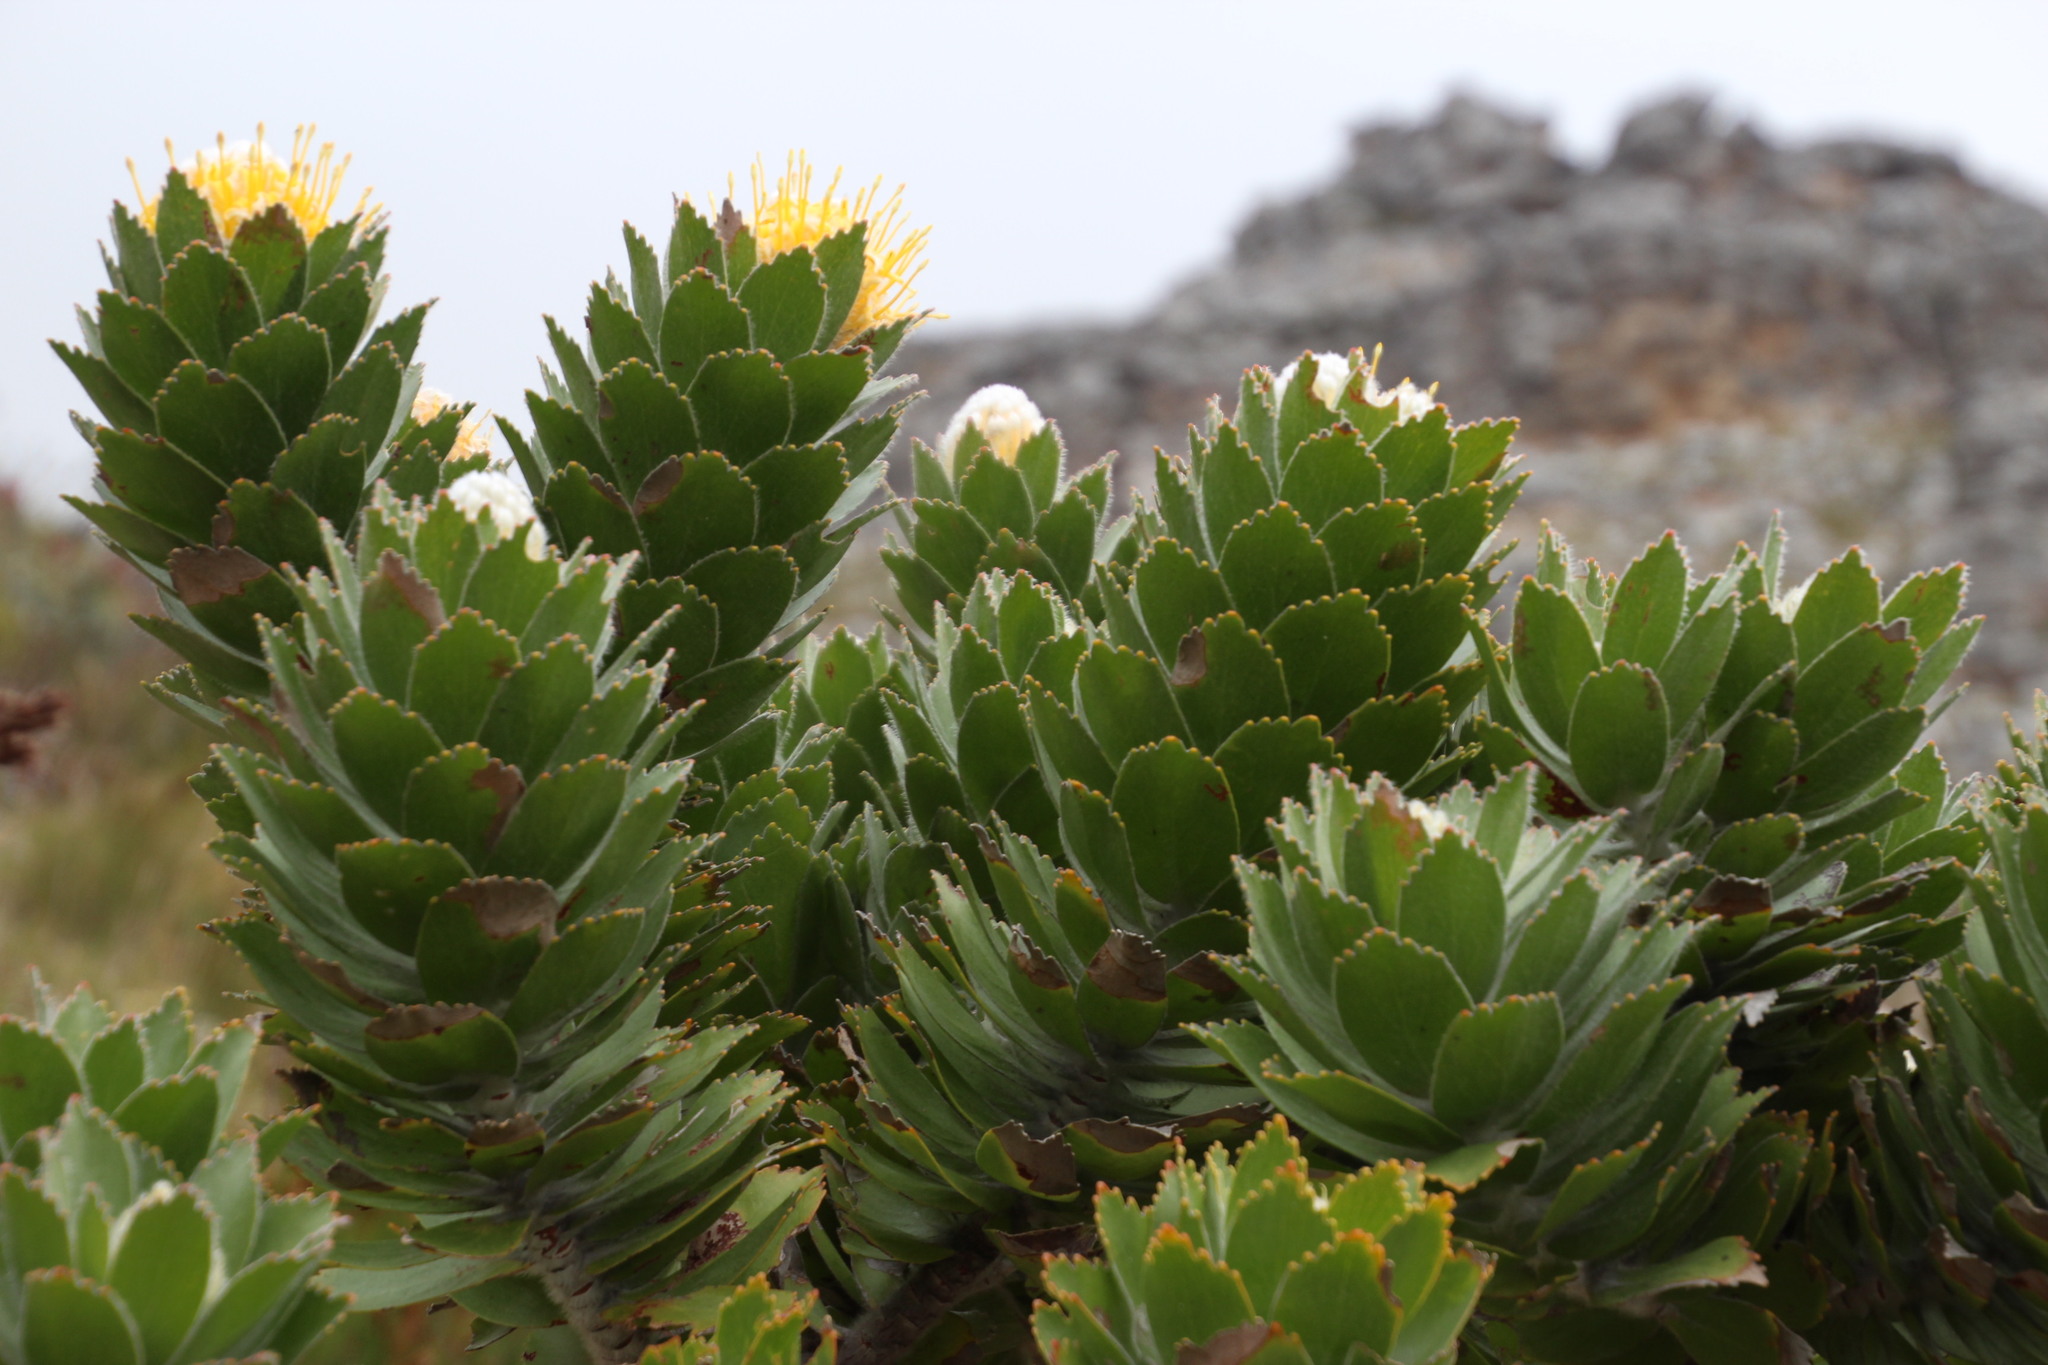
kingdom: Plantae
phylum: Tracheophyta
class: Magnoliopsida
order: Proteales
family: Proteaceae
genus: Leucospermum
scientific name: Leucospermum conocarpodendron
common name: Tree pincushion
